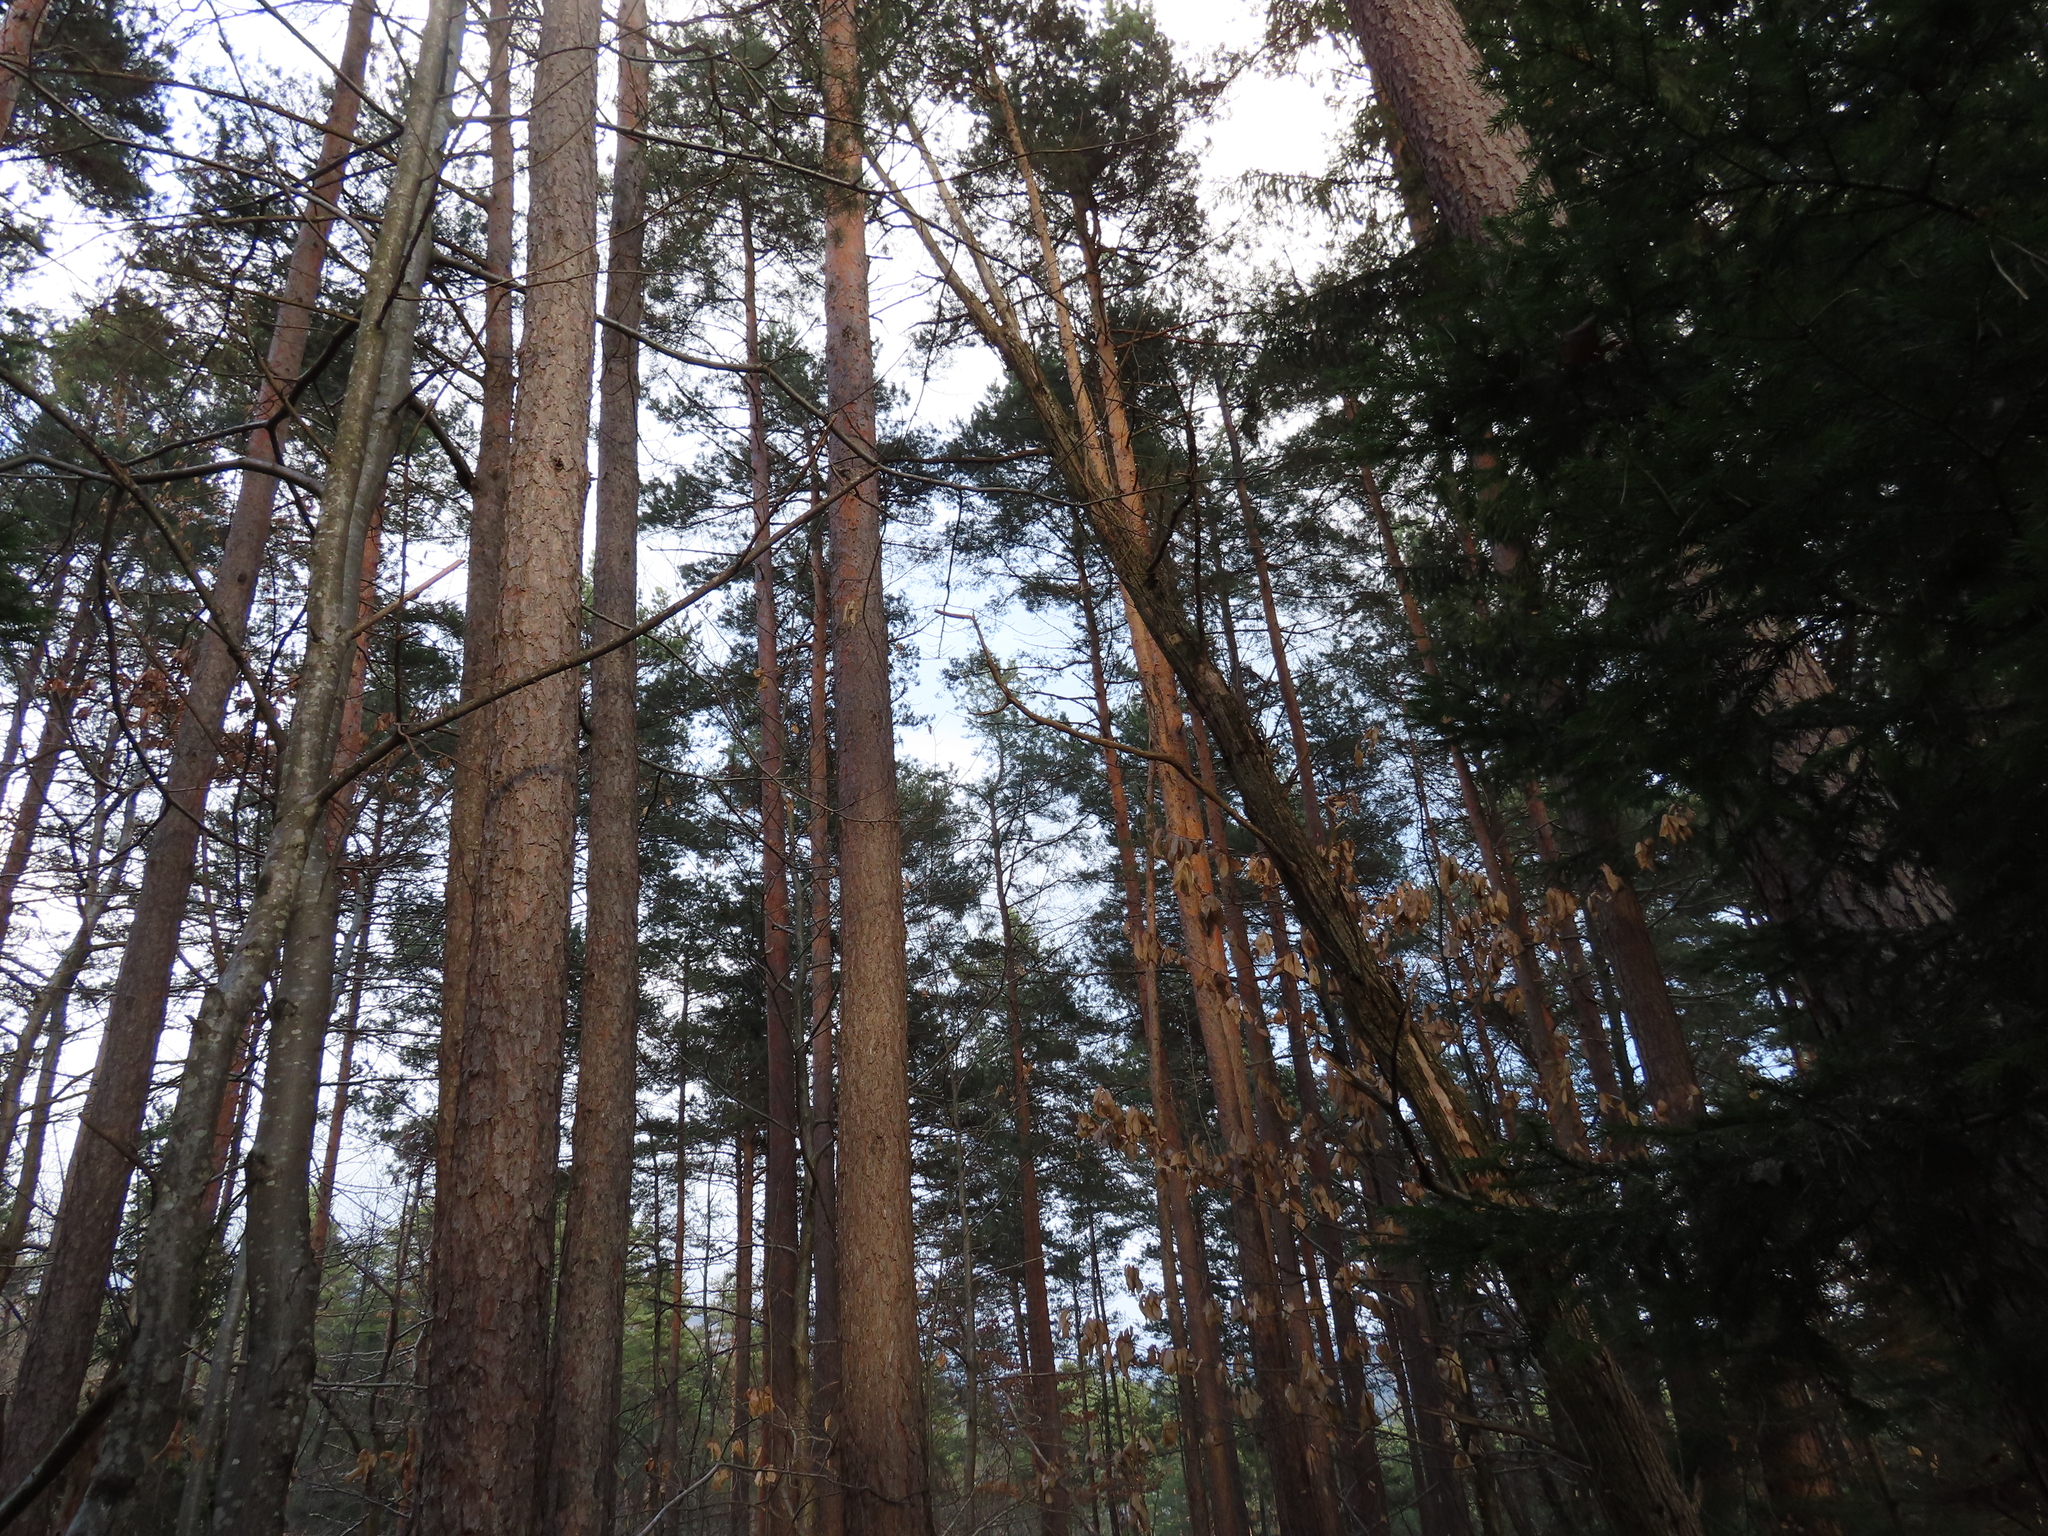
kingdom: Plantae
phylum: Tracheophyta
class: Pinopsida
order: Pinales
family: Pinaceae
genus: Pinus
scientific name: Pinus sylvestris
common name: Scots pine
